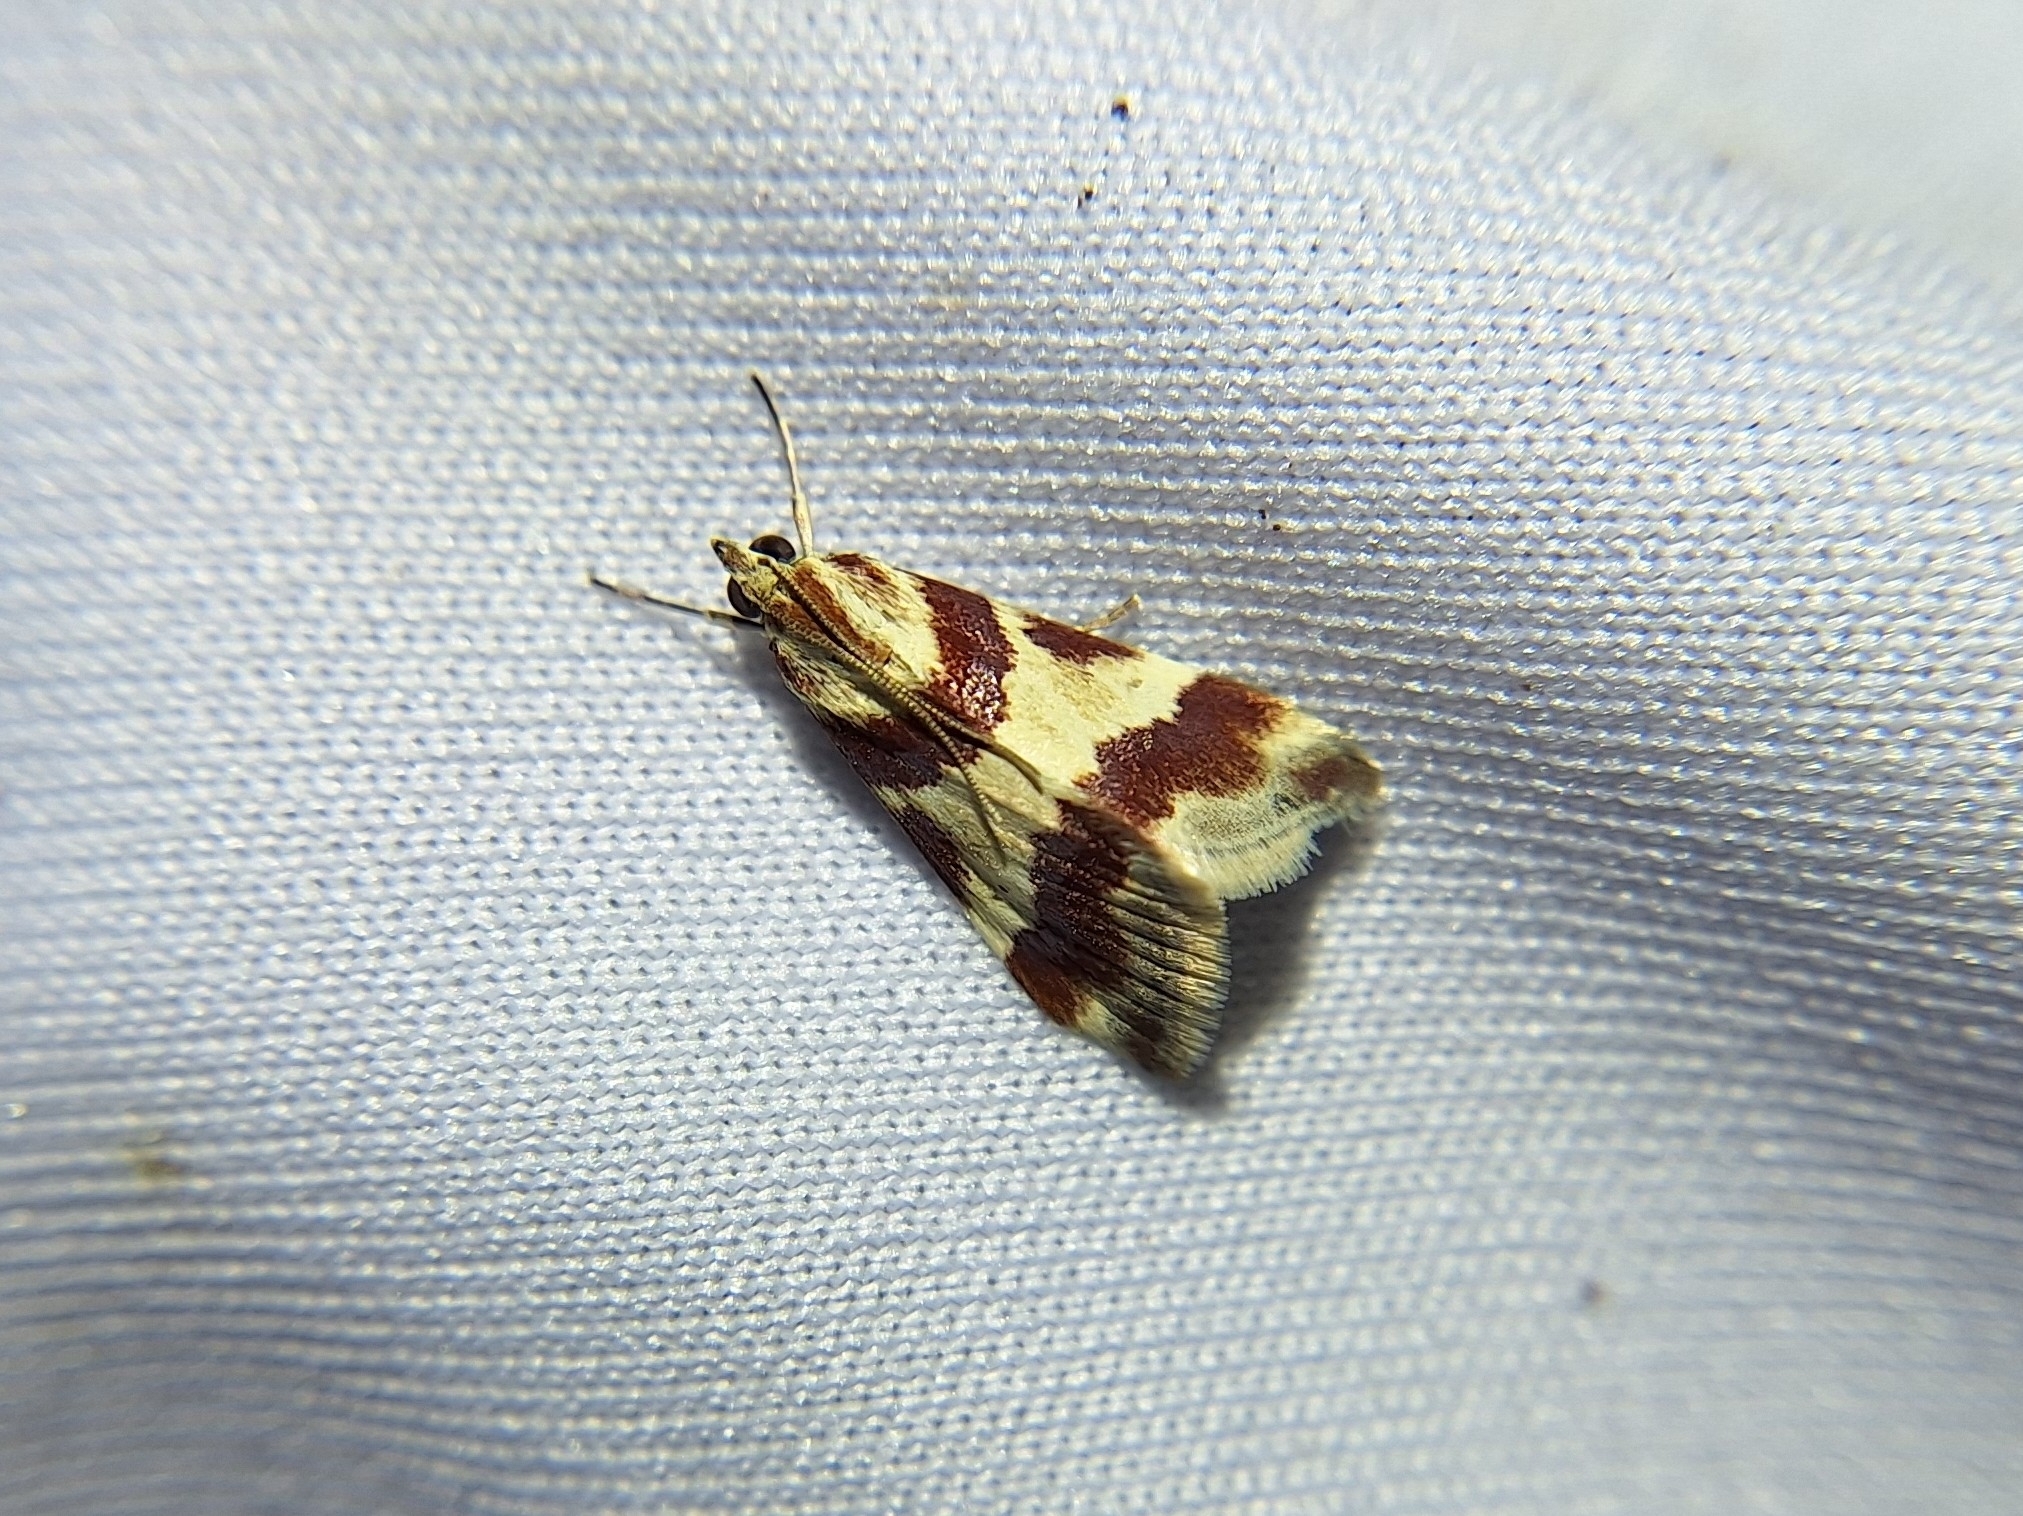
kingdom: Animalia
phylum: Arthropoda
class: Insecta
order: Lepidoptera
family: Crambidae
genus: Noctuelia
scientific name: Noctuelia Mimoschinia rufofascialis
